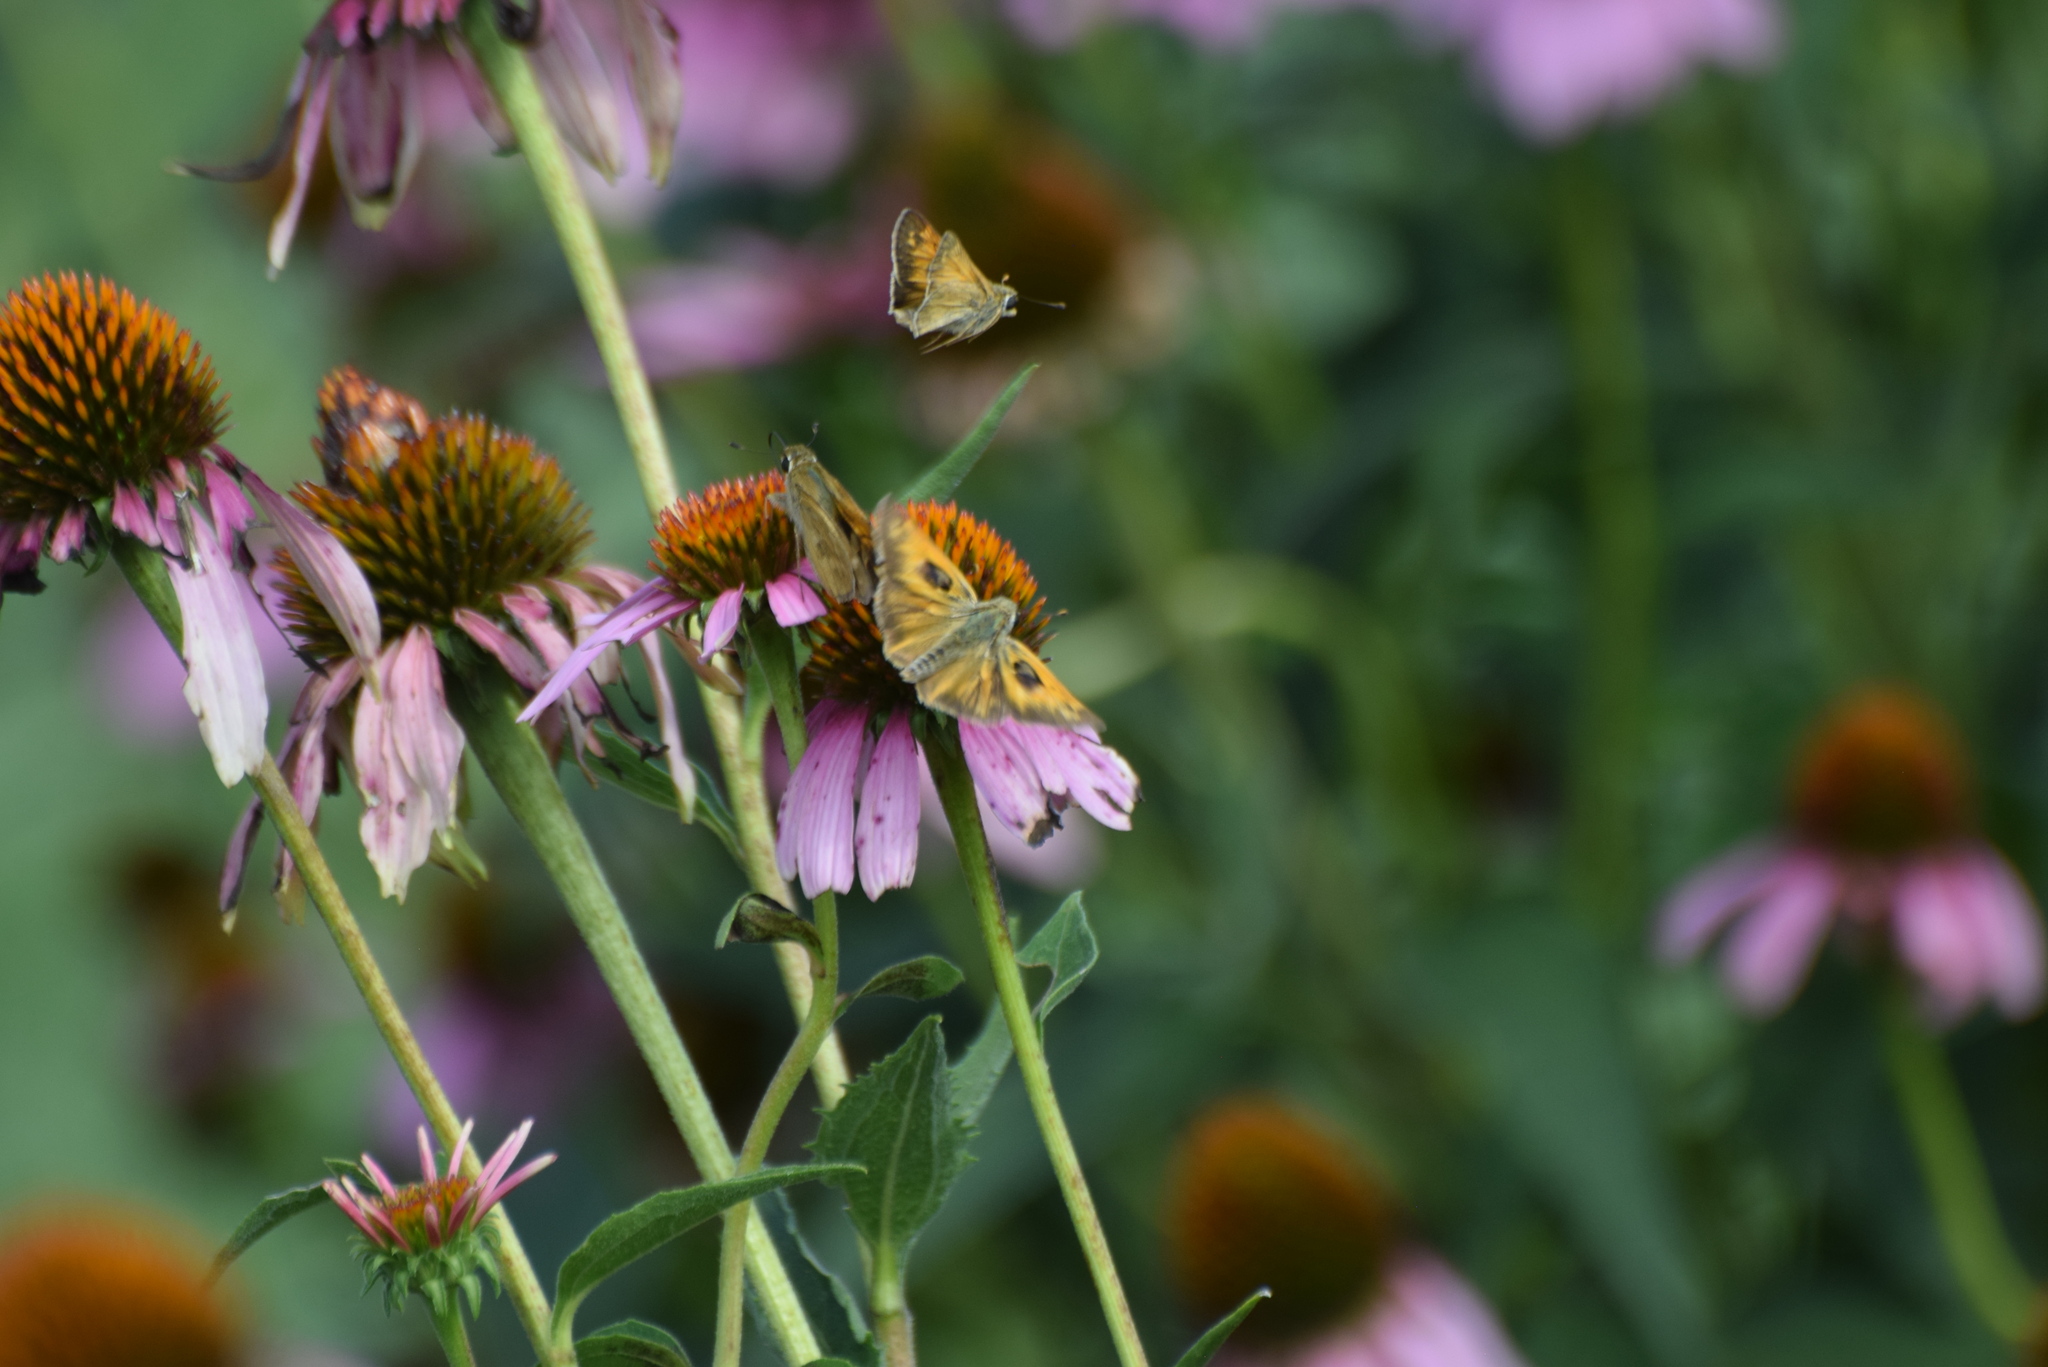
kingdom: Animalia
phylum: Arthropoda
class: Insecta
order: Lepidoptera
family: Hesperiidae
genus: Atalopedes
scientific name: Atalopedes
